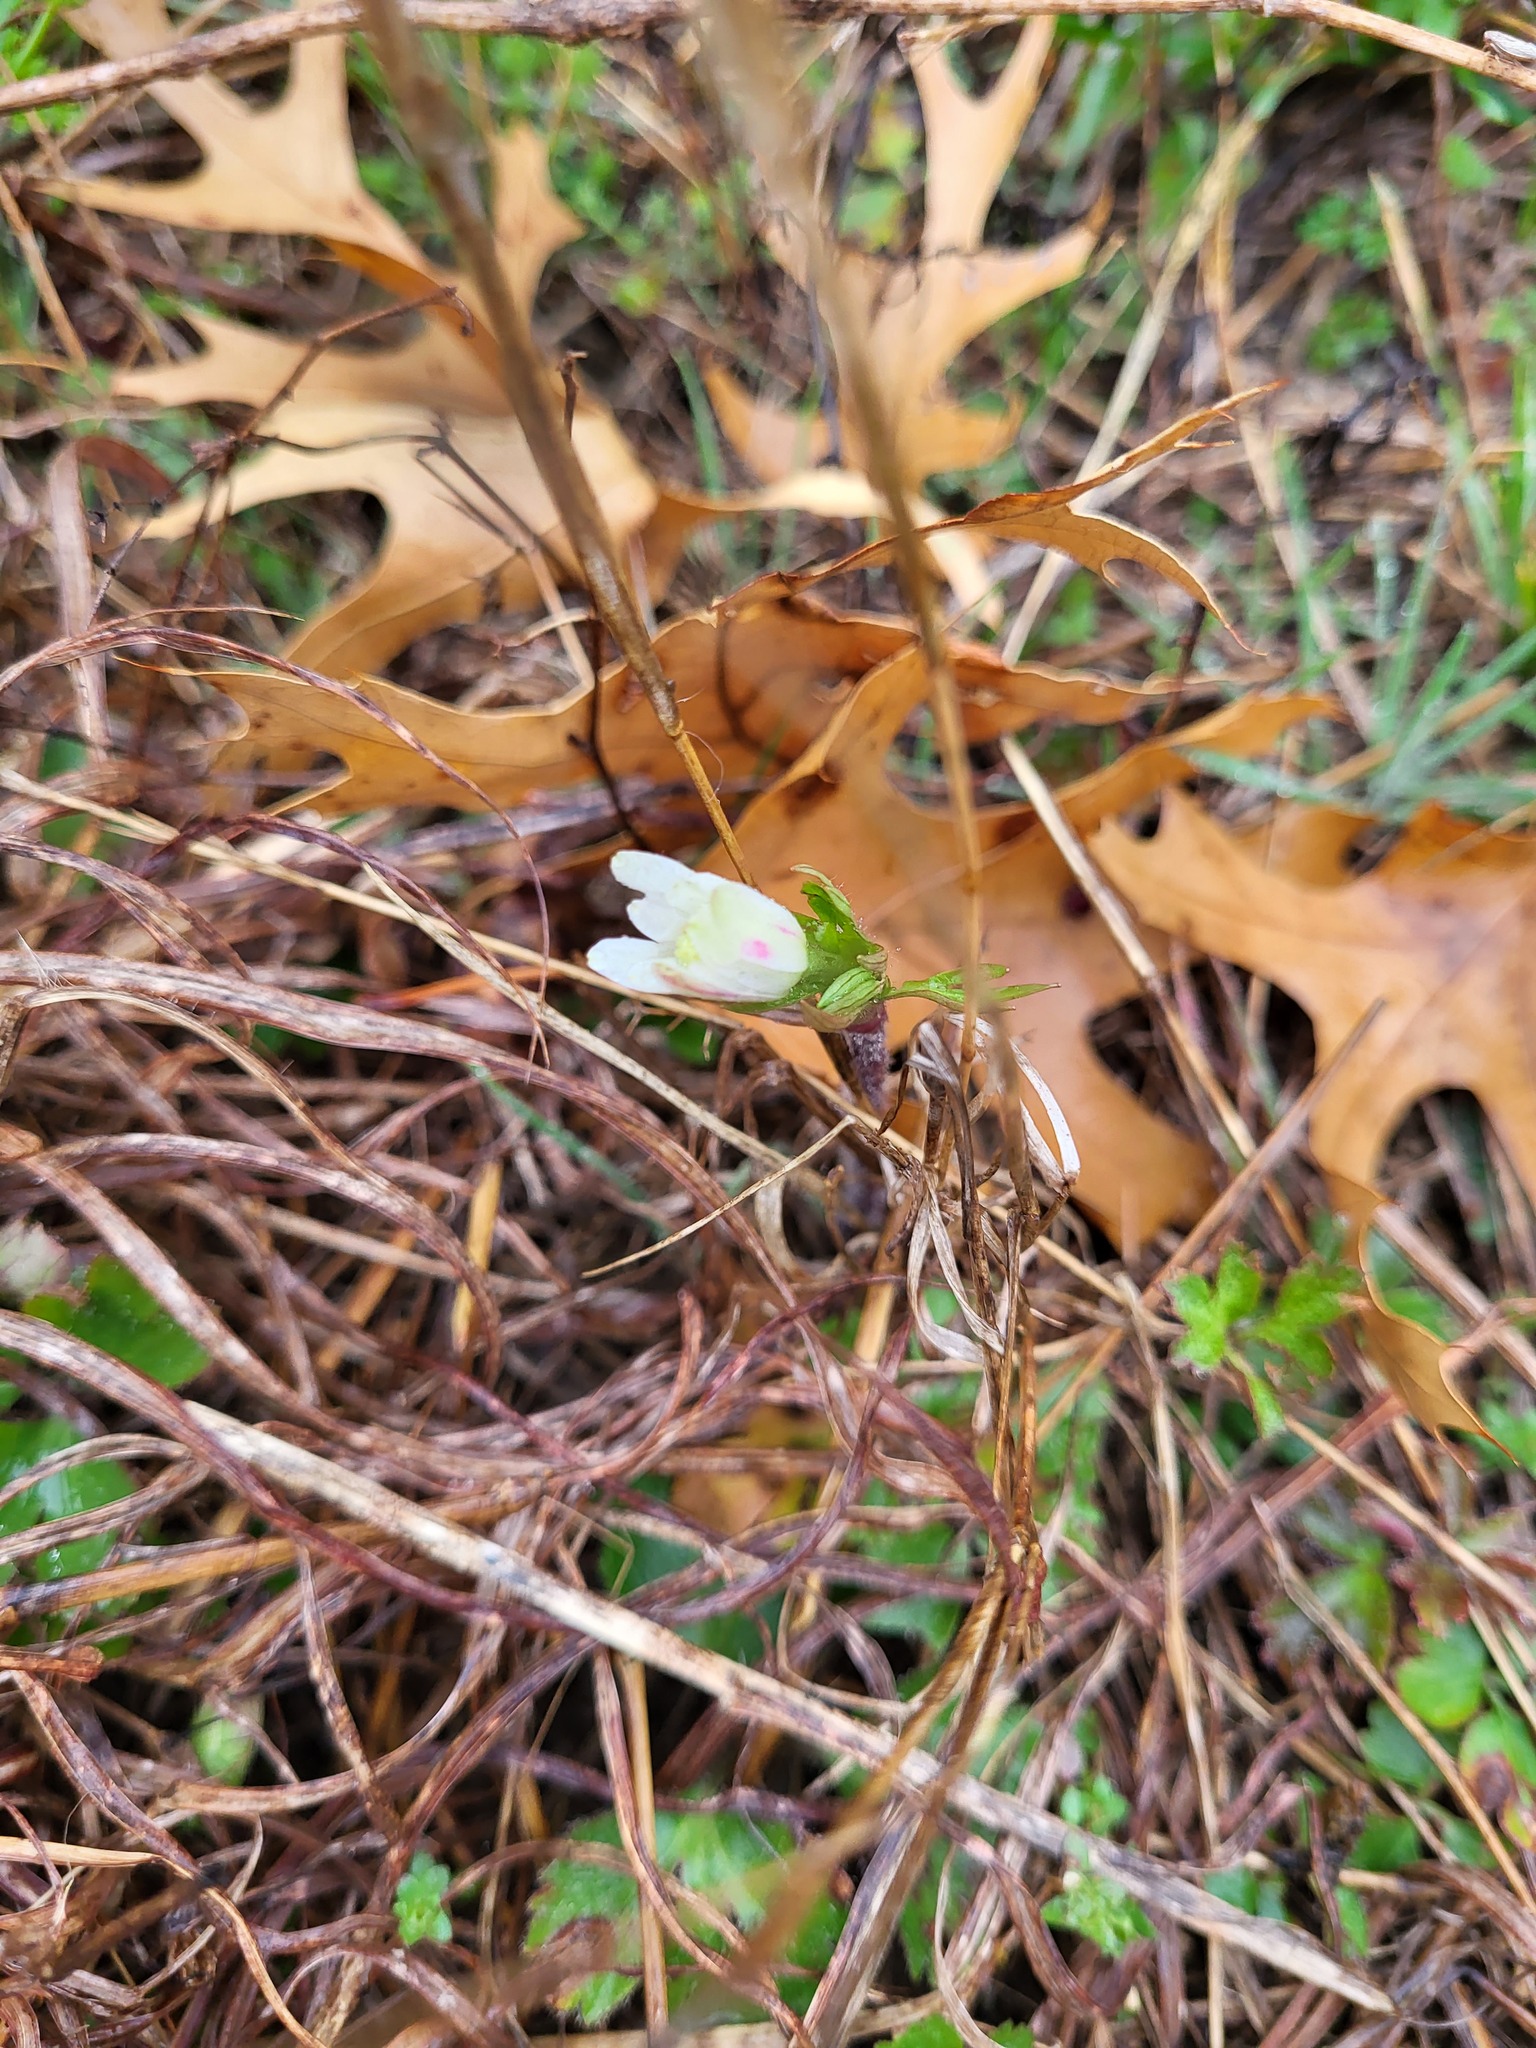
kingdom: Plantae
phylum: Tracheophyta
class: Magnoliopsida
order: Ranunculales
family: Ranunculaceae
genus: Anemone
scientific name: Anemone berlandieri
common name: Ten-petal anemone
